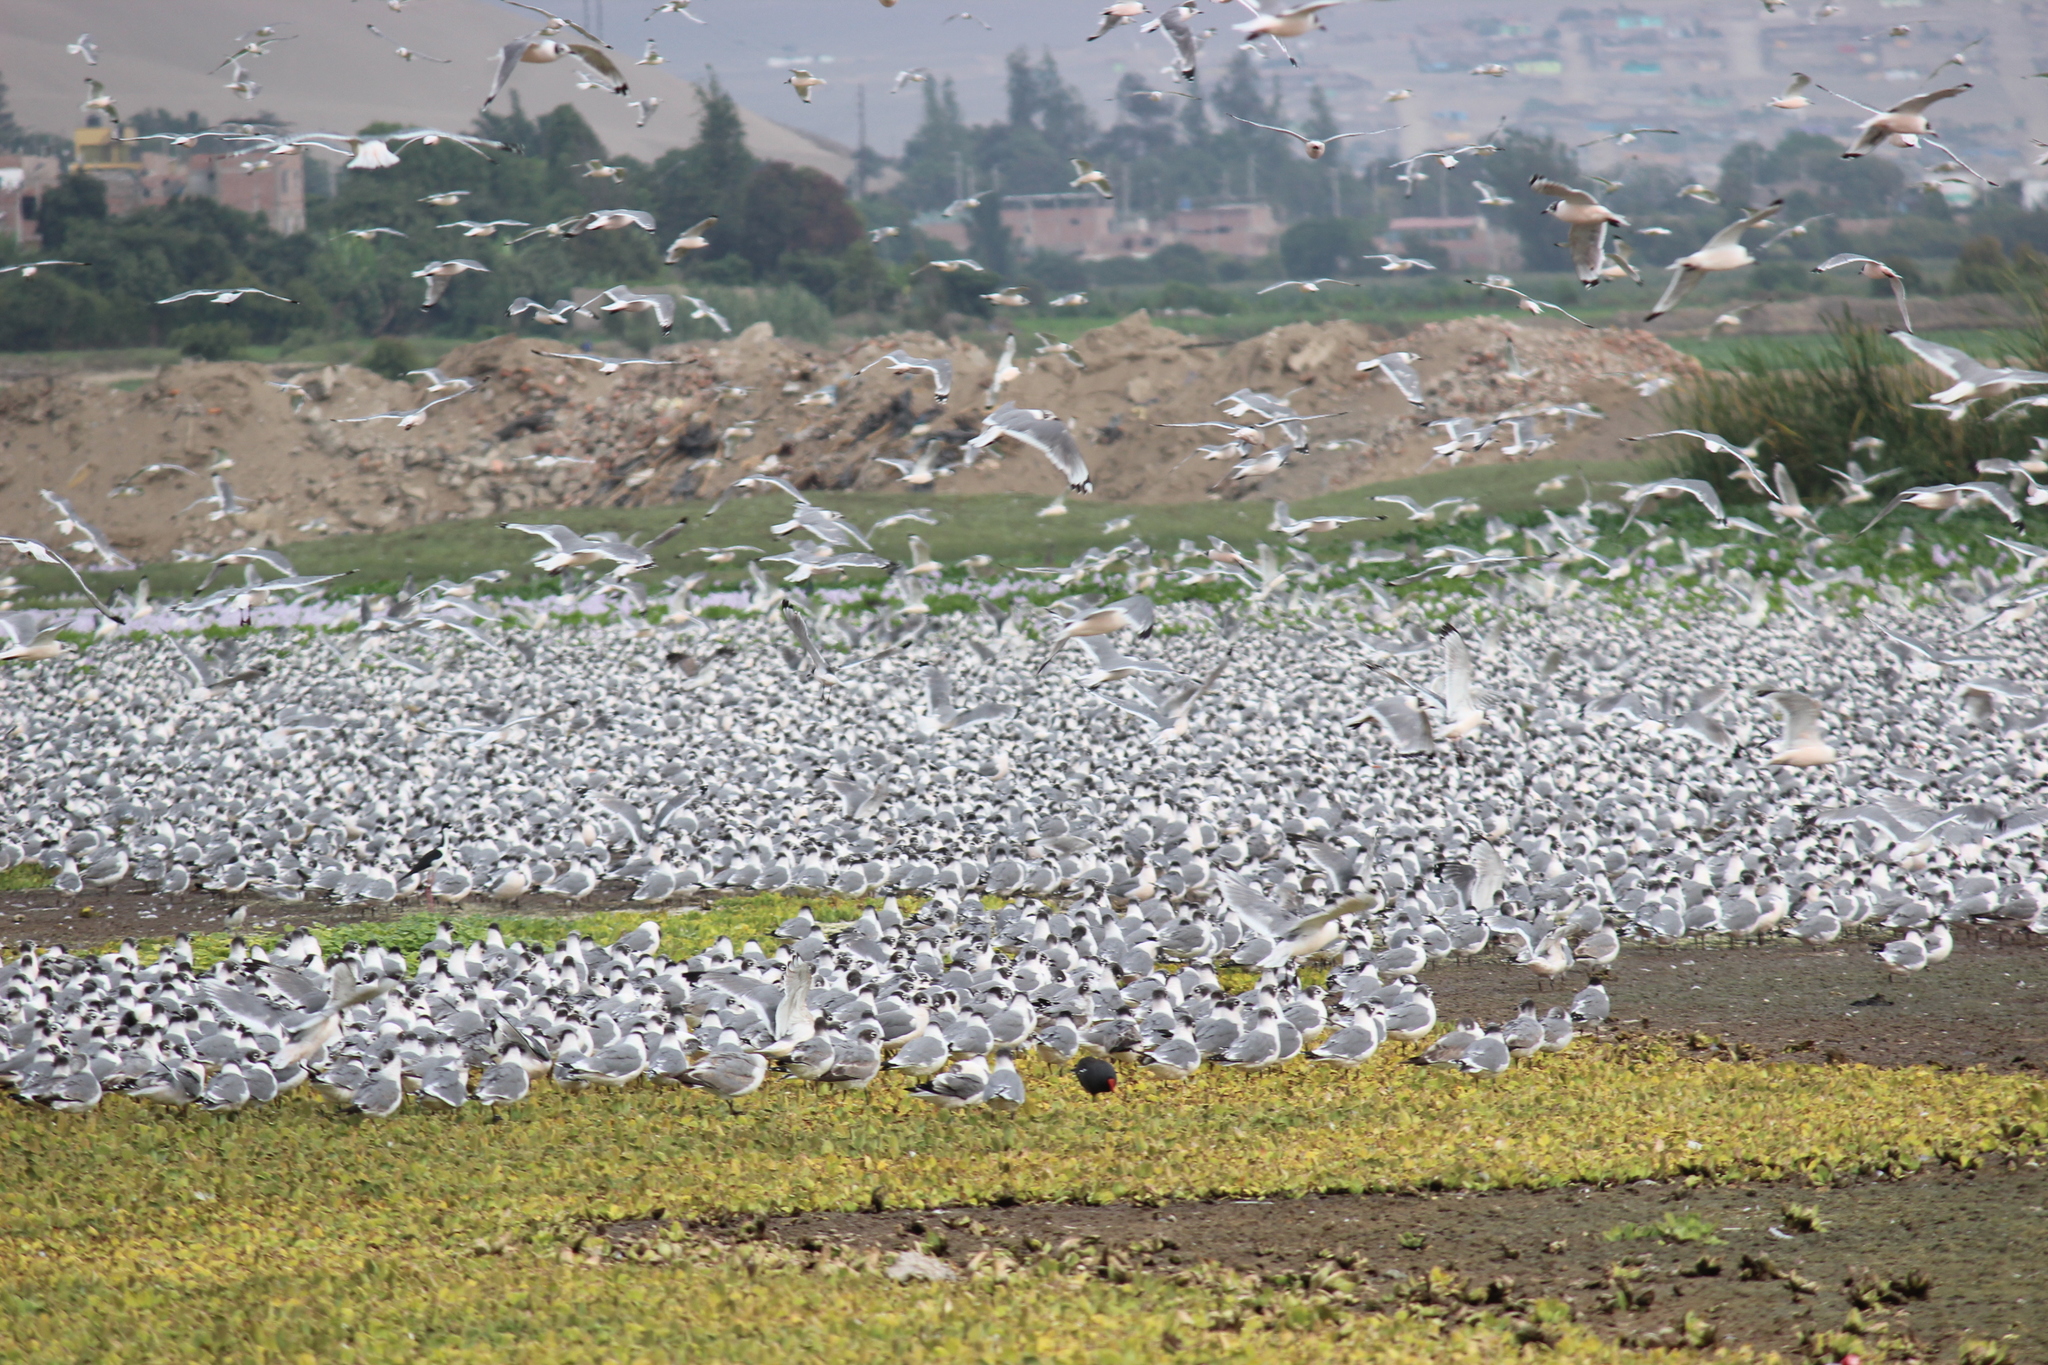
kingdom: Animalia
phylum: Chordata
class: Aves
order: Charadriiformes
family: Laridae
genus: Leucophaeus
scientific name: Leucophaeus pipixcan
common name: Franklin's gull
